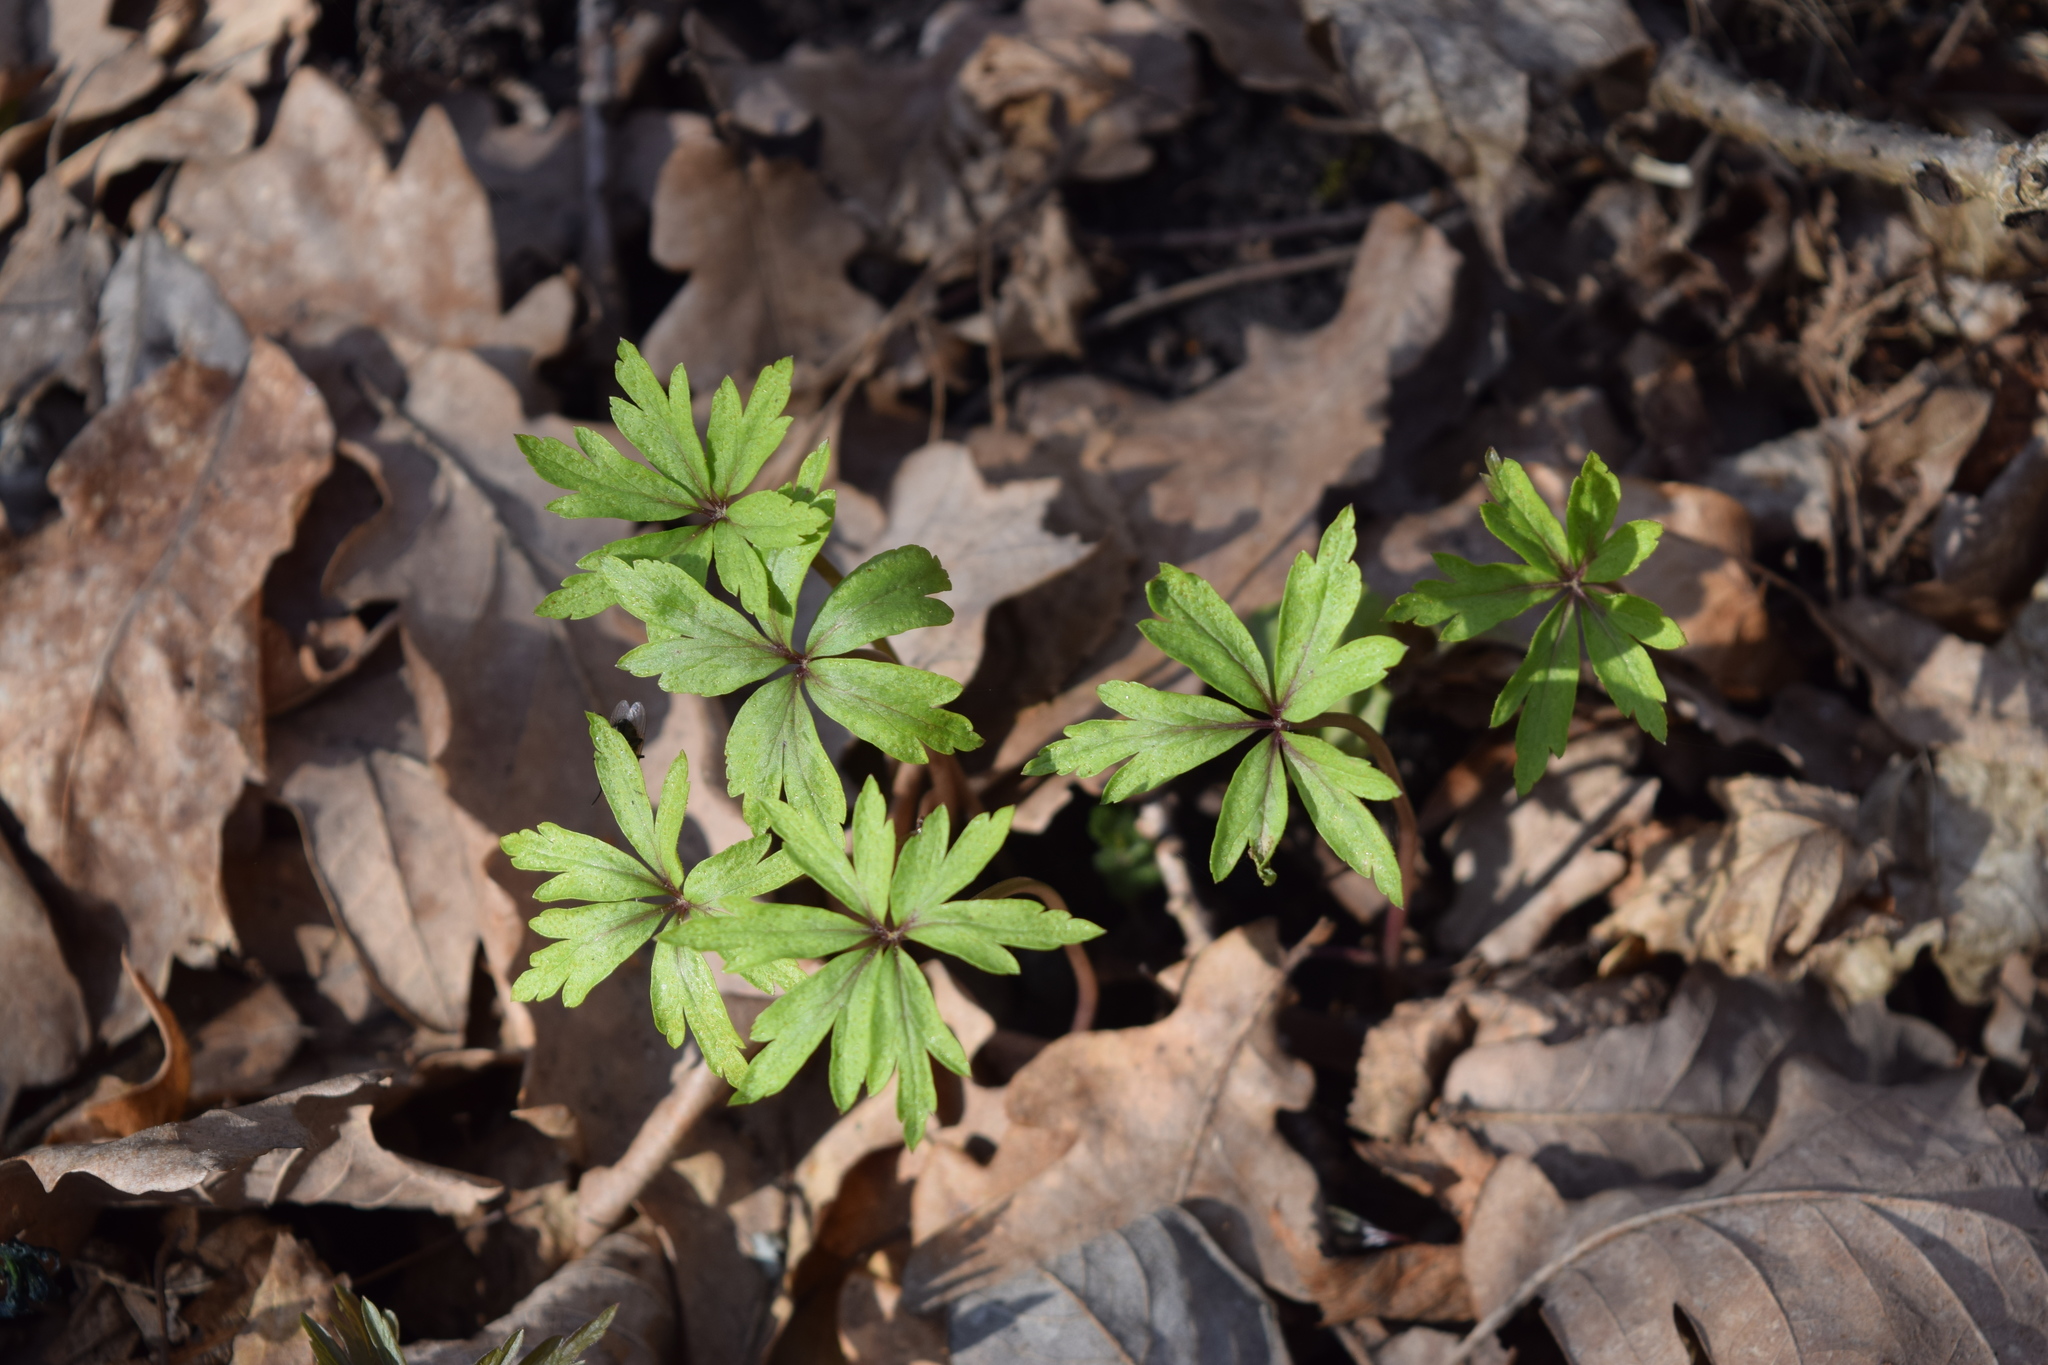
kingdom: Plantae
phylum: Tracheophyta
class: Magnoliopsida
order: Ranunculales
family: Ranunculaceae
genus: Anemone
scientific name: Anemone ranunculoides
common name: Yellow anemone
